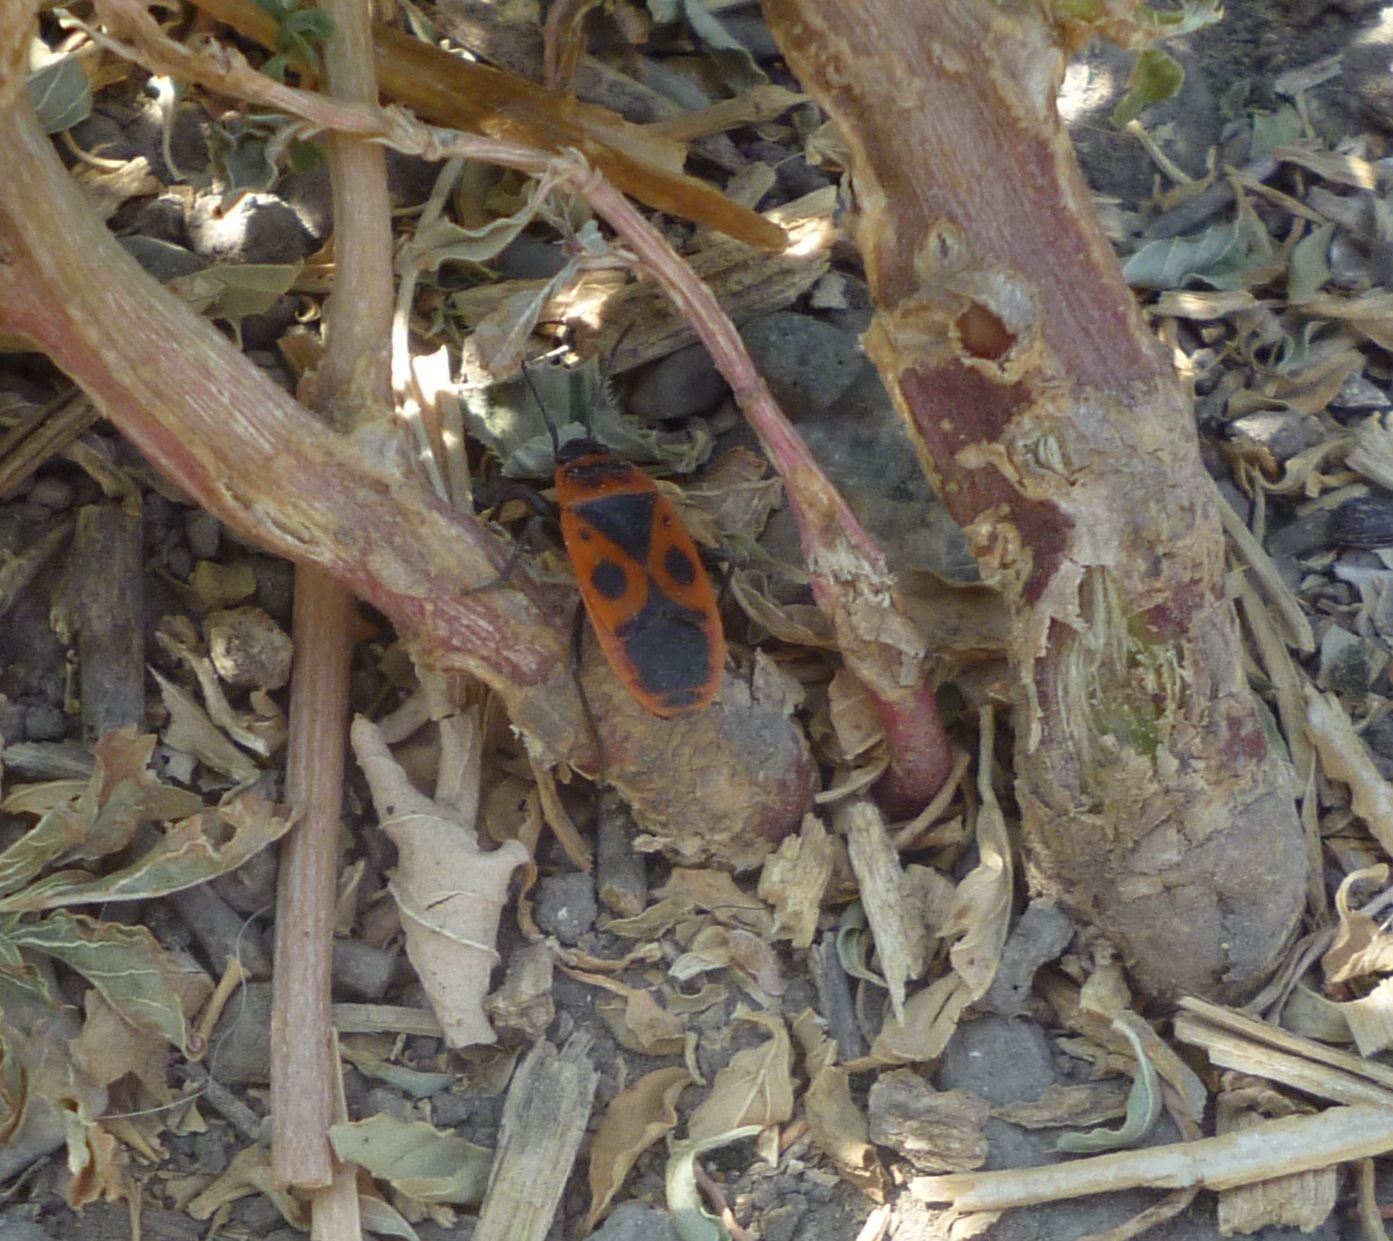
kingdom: Animalia
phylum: Arthropoda
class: Insecta
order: Hemiptera
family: Pyrrhocoridae
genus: Pyrrhocoris
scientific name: Pyrrhocoris apterus
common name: Firebug
